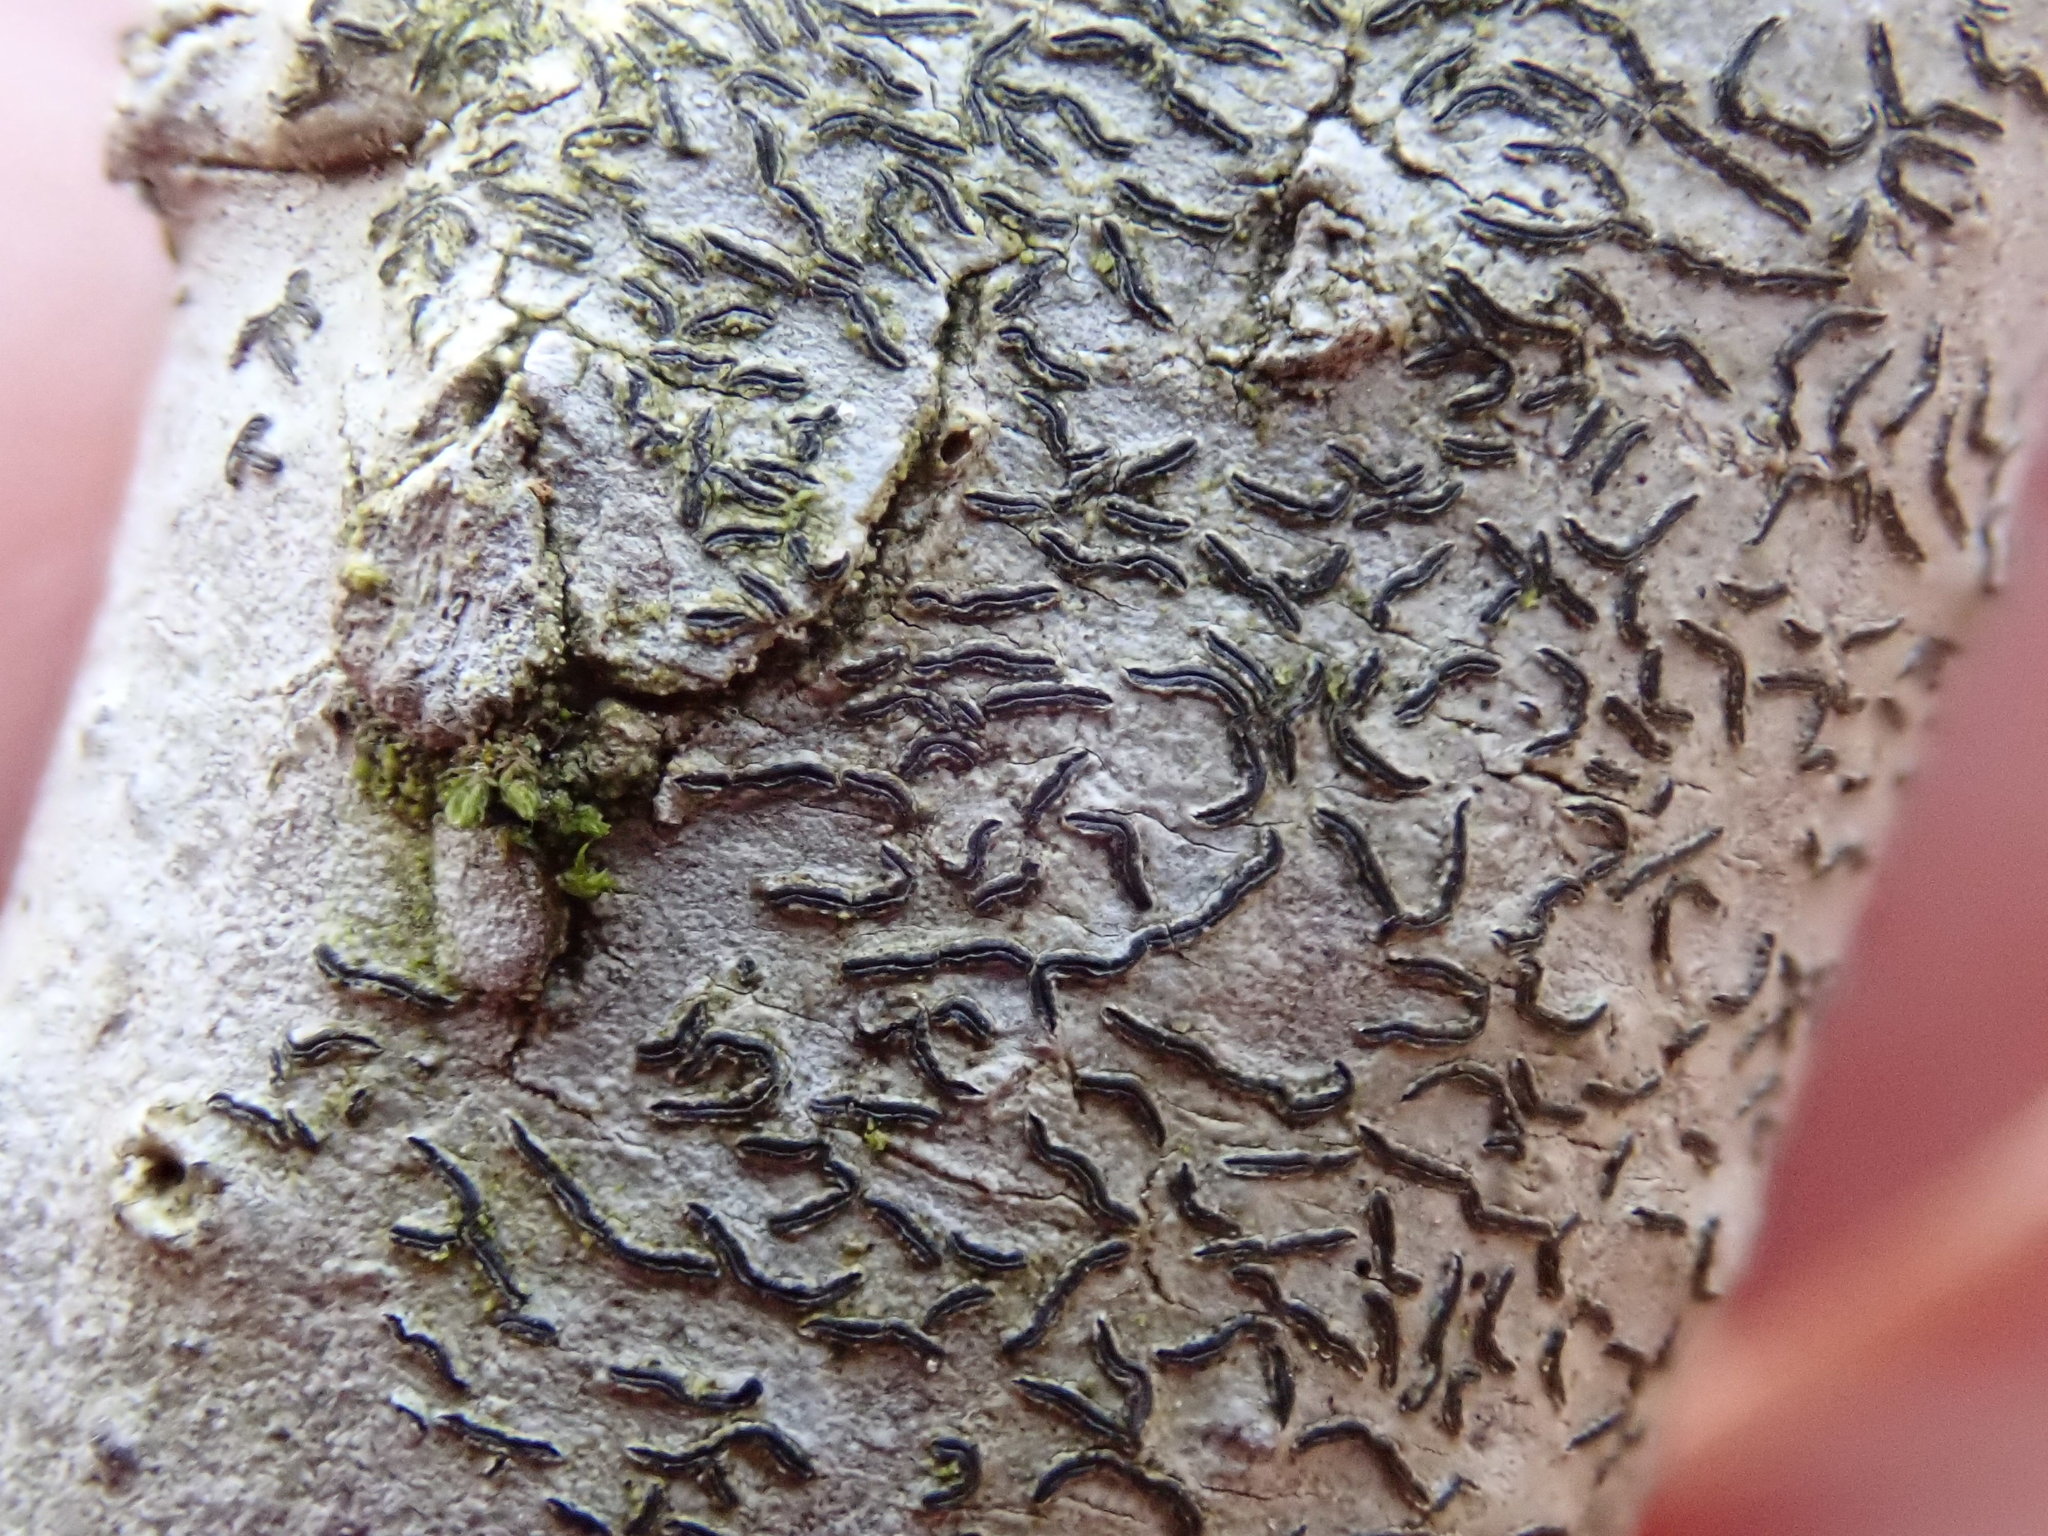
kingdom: Fungi
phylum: Ascomycota
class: Lecanoromycetes
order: Ostropales
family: Graphidaceae
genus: Graphis
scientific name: Graphis scripta
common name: Script lichen
